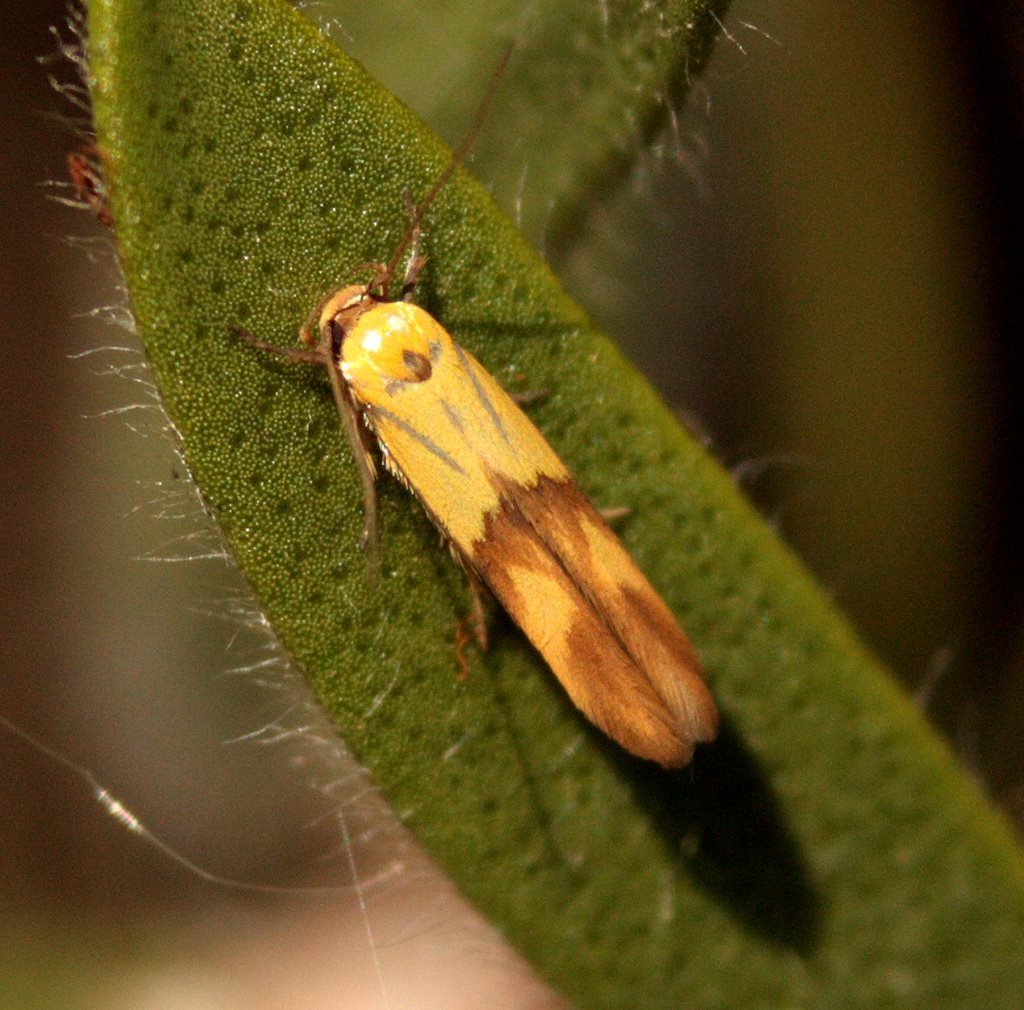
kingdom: Animalia
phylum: Arthropoda
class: Insecta
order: Lepidoptera
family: Stathmopodidae
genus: Stathmopoda
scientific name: Stathmopoda auriferella
